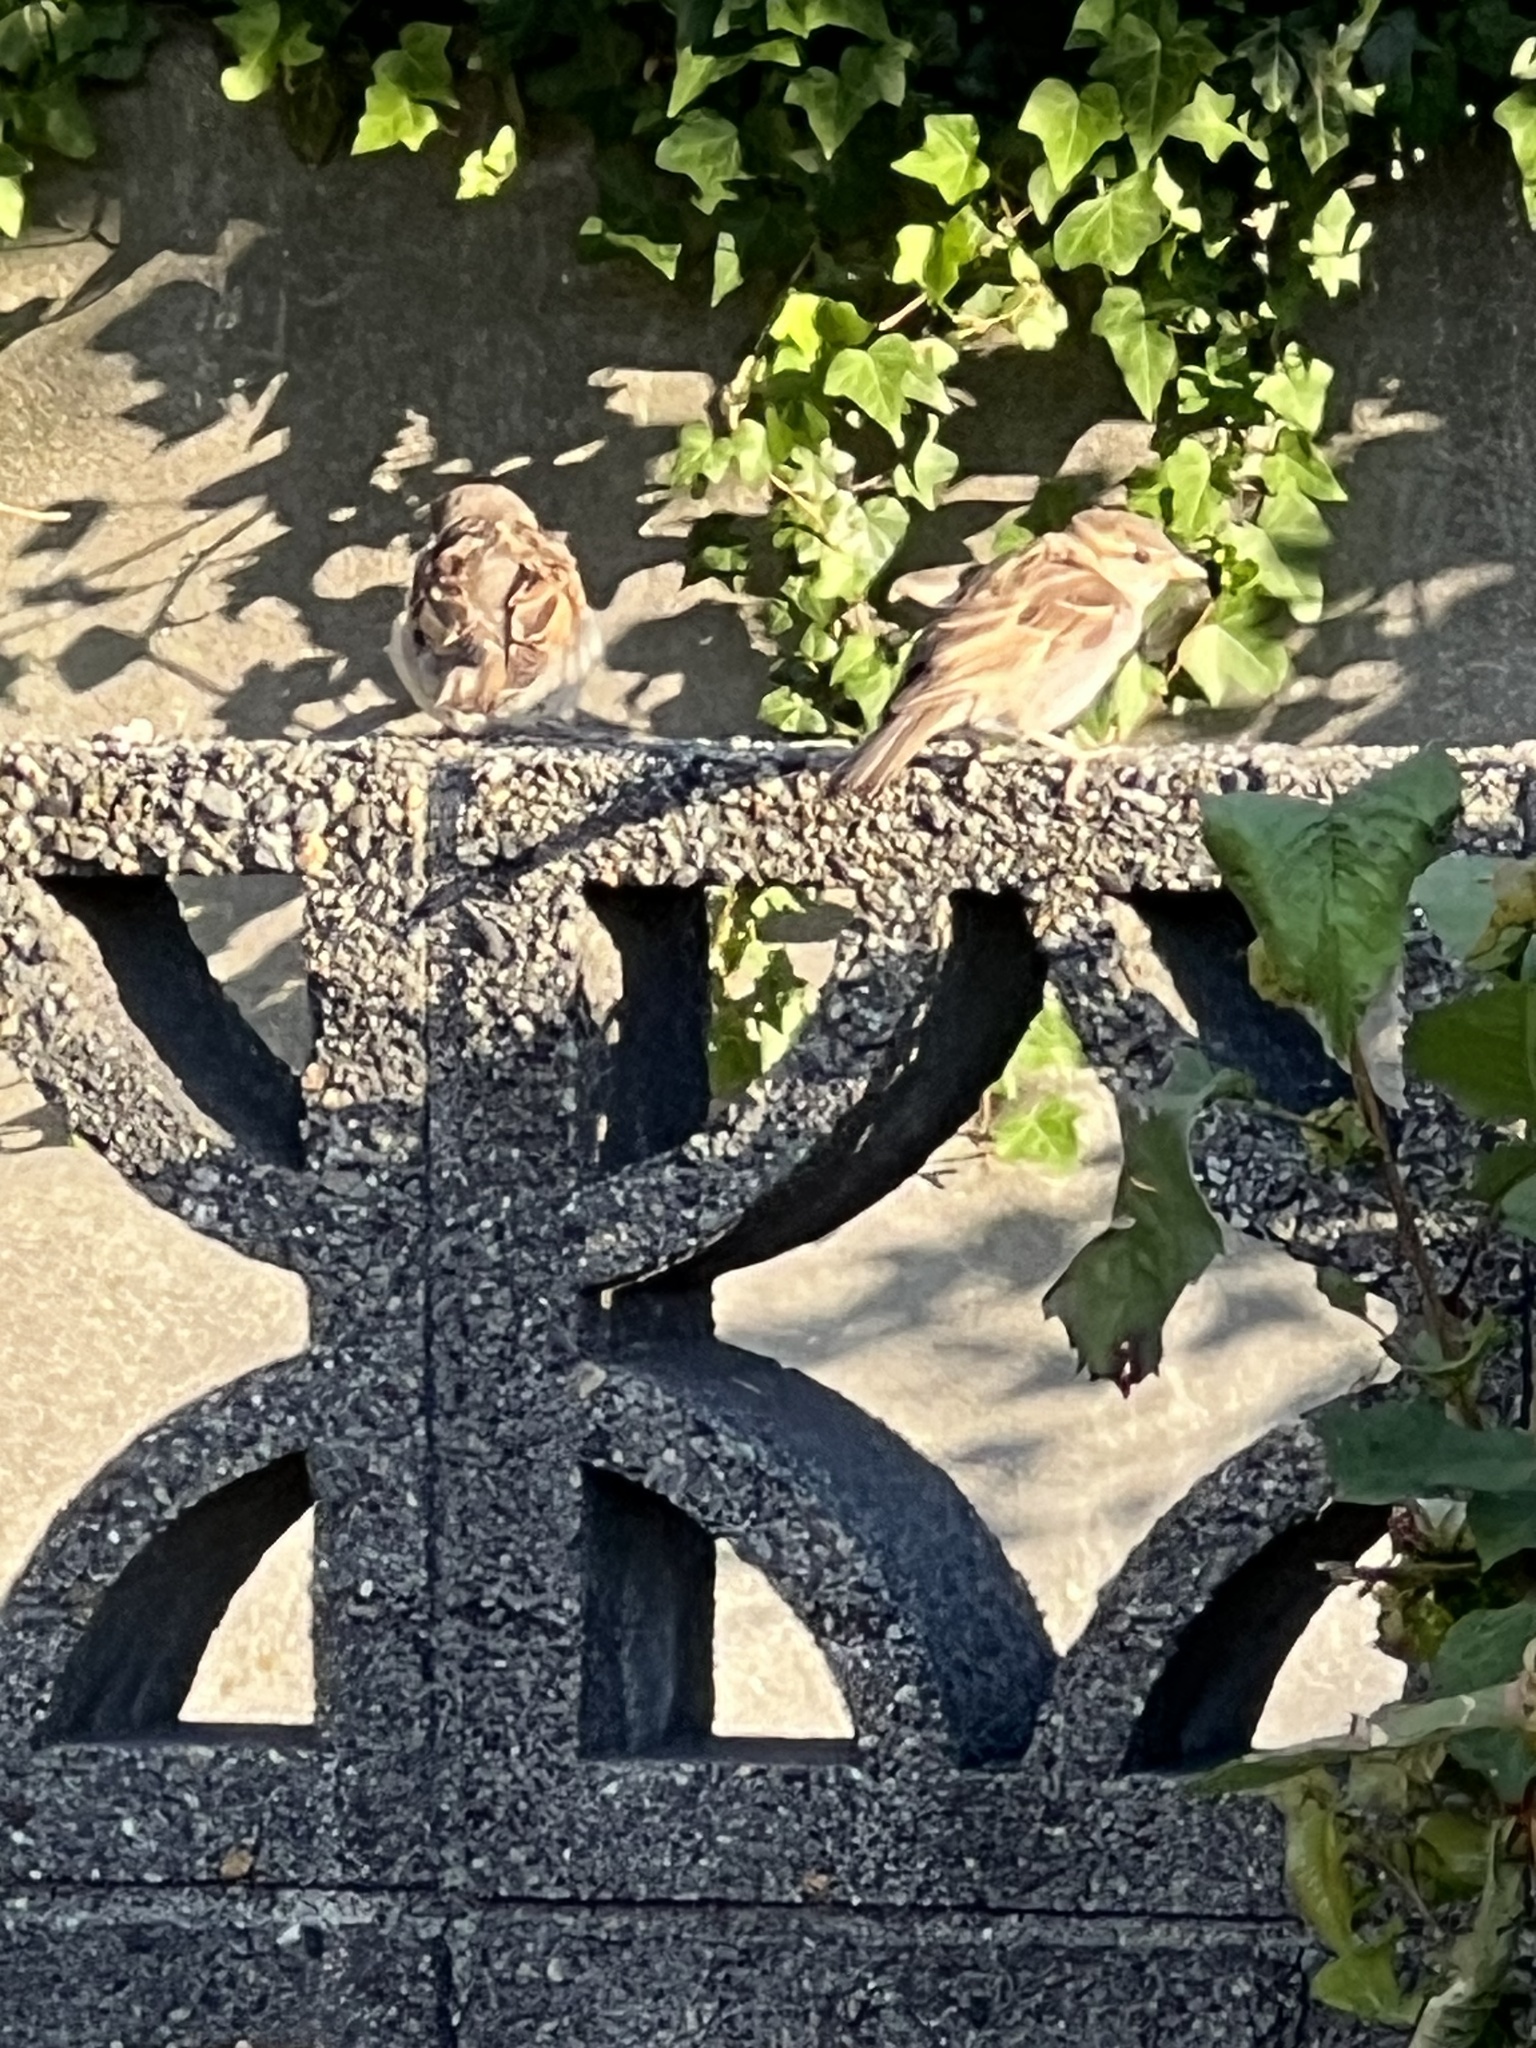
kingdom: Animalia
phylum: Chordata
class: Aves
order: Passeriformes
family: Passeridae
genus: Passer
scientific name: Passer domesticus
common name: House sparrow
